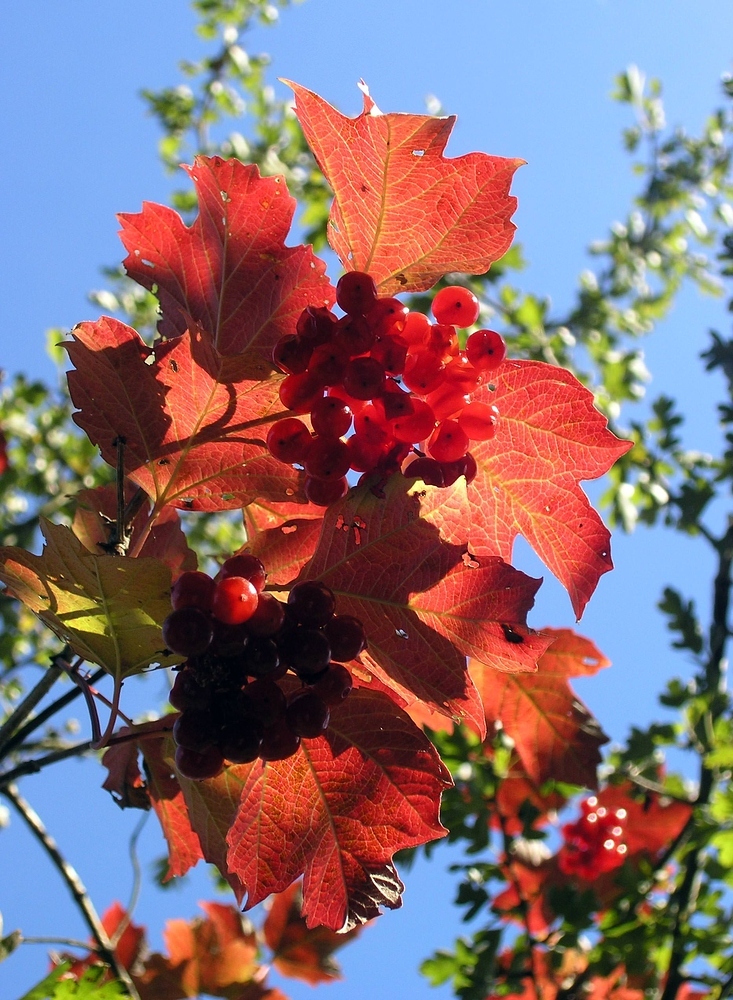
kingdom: Plantae
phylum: Tracheophyta
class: Magnoliopsida
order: Dipsacales
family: Viburnaceae
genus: Viburnum
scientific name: Viburnum opulus
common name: Guelder-rose
